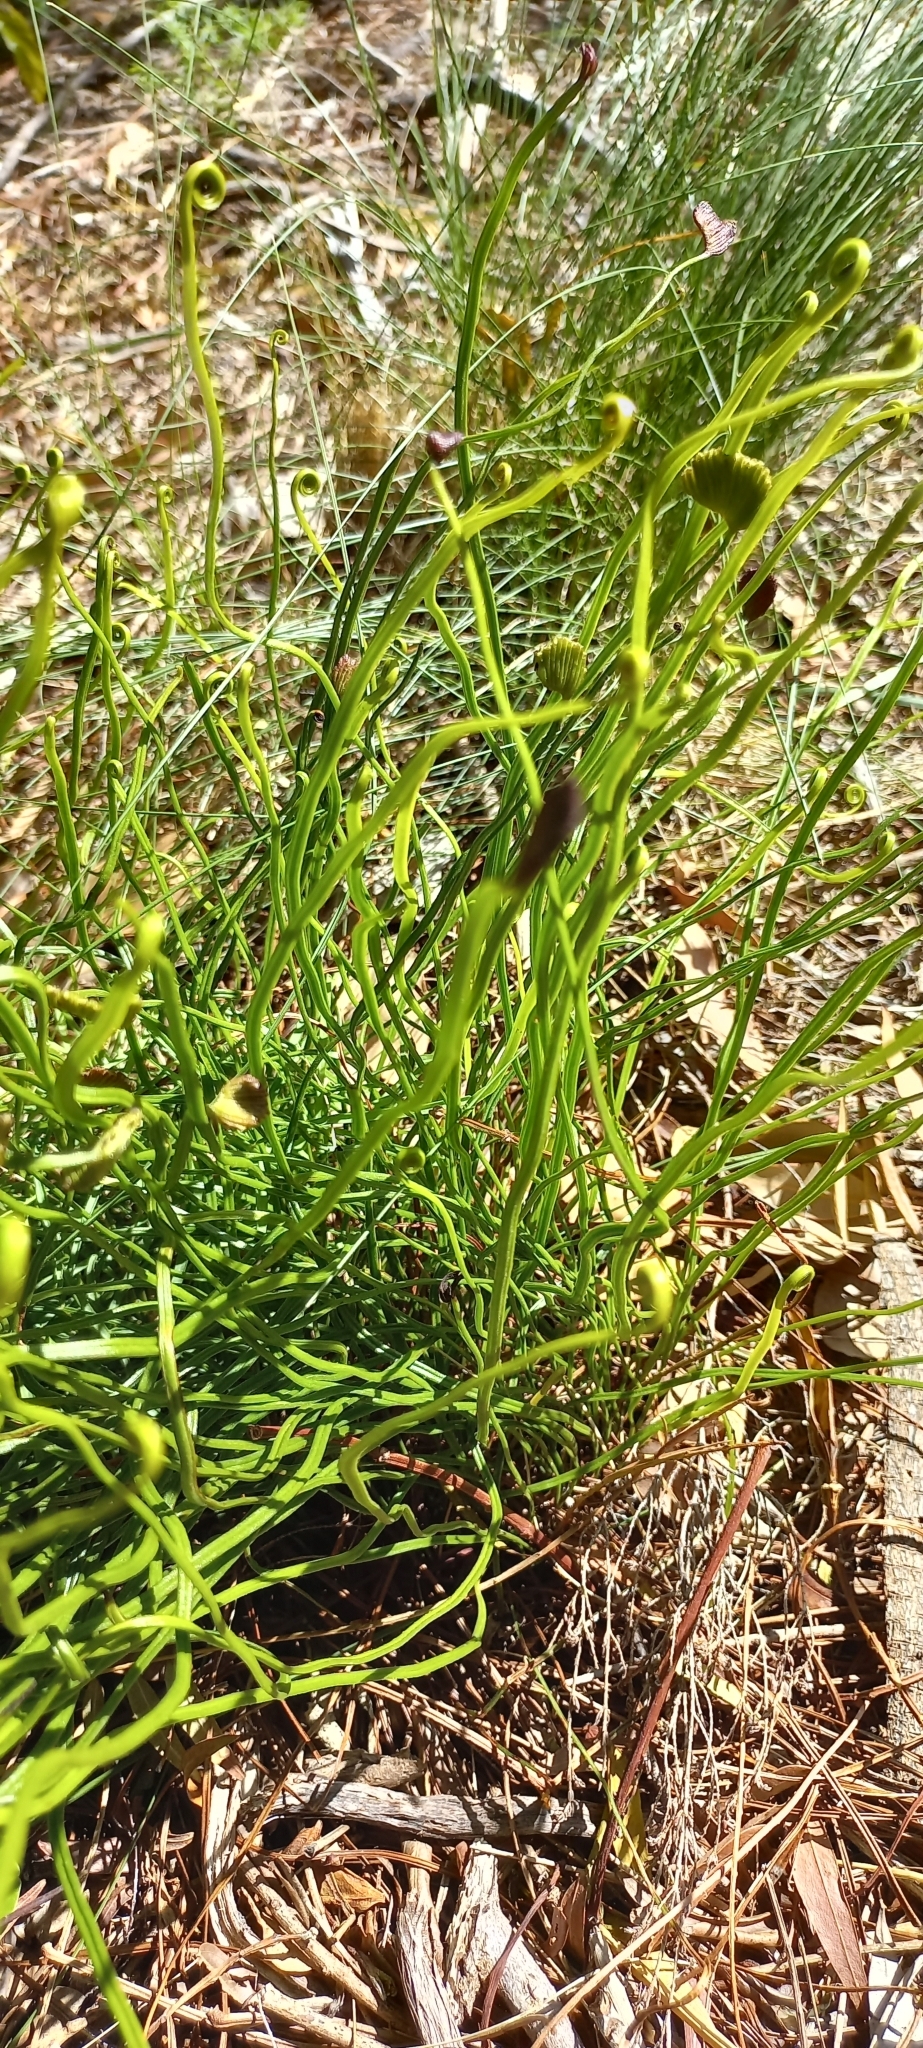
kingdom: Plantae
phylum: Tracheophyta
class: Polypodiopsida
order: Schizaeales
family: Schizaeaceae
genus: Schizaea
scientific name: Schizaea pectinata
